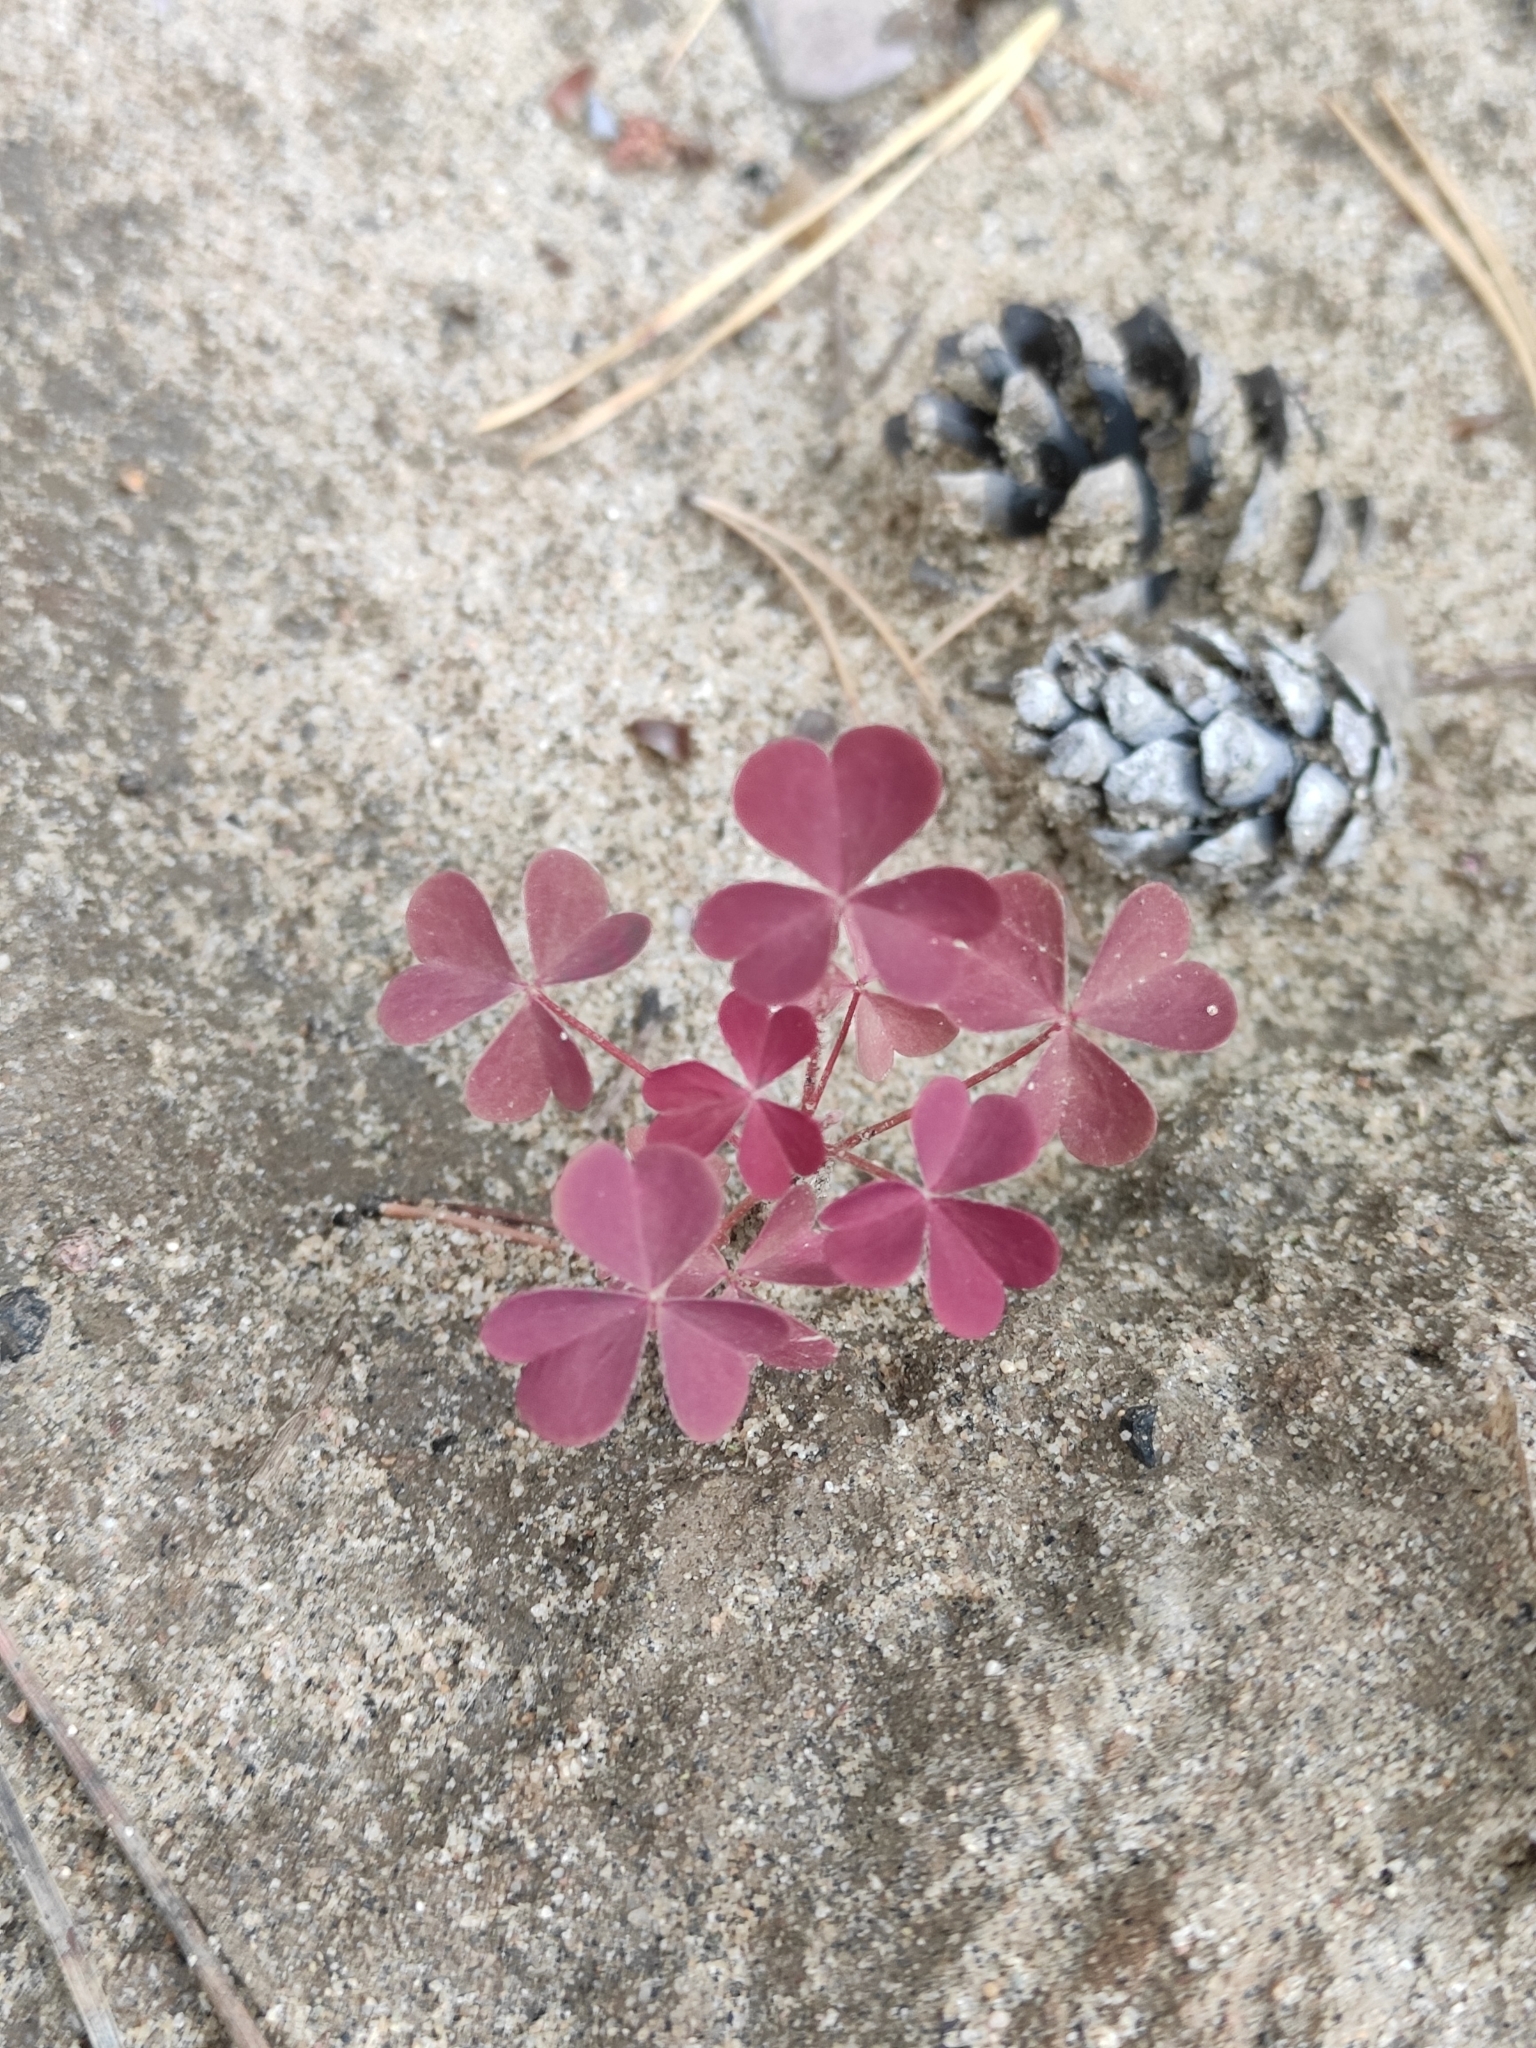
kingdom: Plantae
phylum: Tracheophyta
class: Magnoliopsida
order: Oxalidales
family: Oxalidaceae
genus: Oxalis
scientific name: Oxalis stricta
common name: Upright yellow-sorrel
